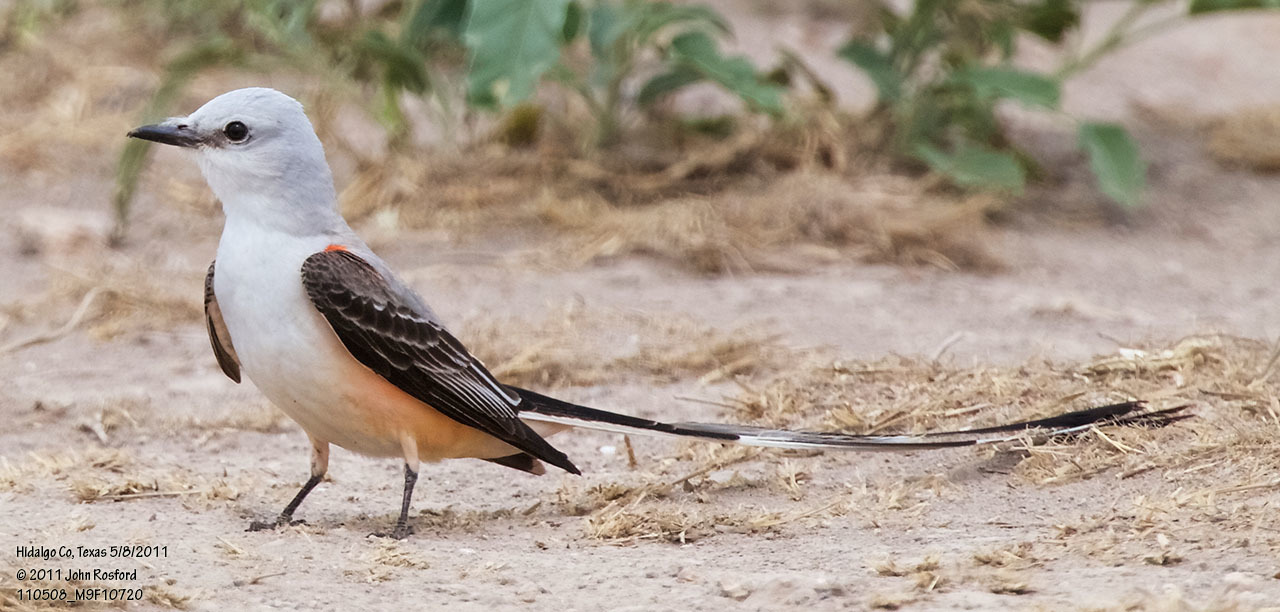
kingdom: Animalia
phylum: Chordata
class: Aves
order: Passeriformes
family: Tyrannidae
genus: Tyrannus
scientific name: Tyrannus forficatus
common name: Scissor-tailed flycatcher
